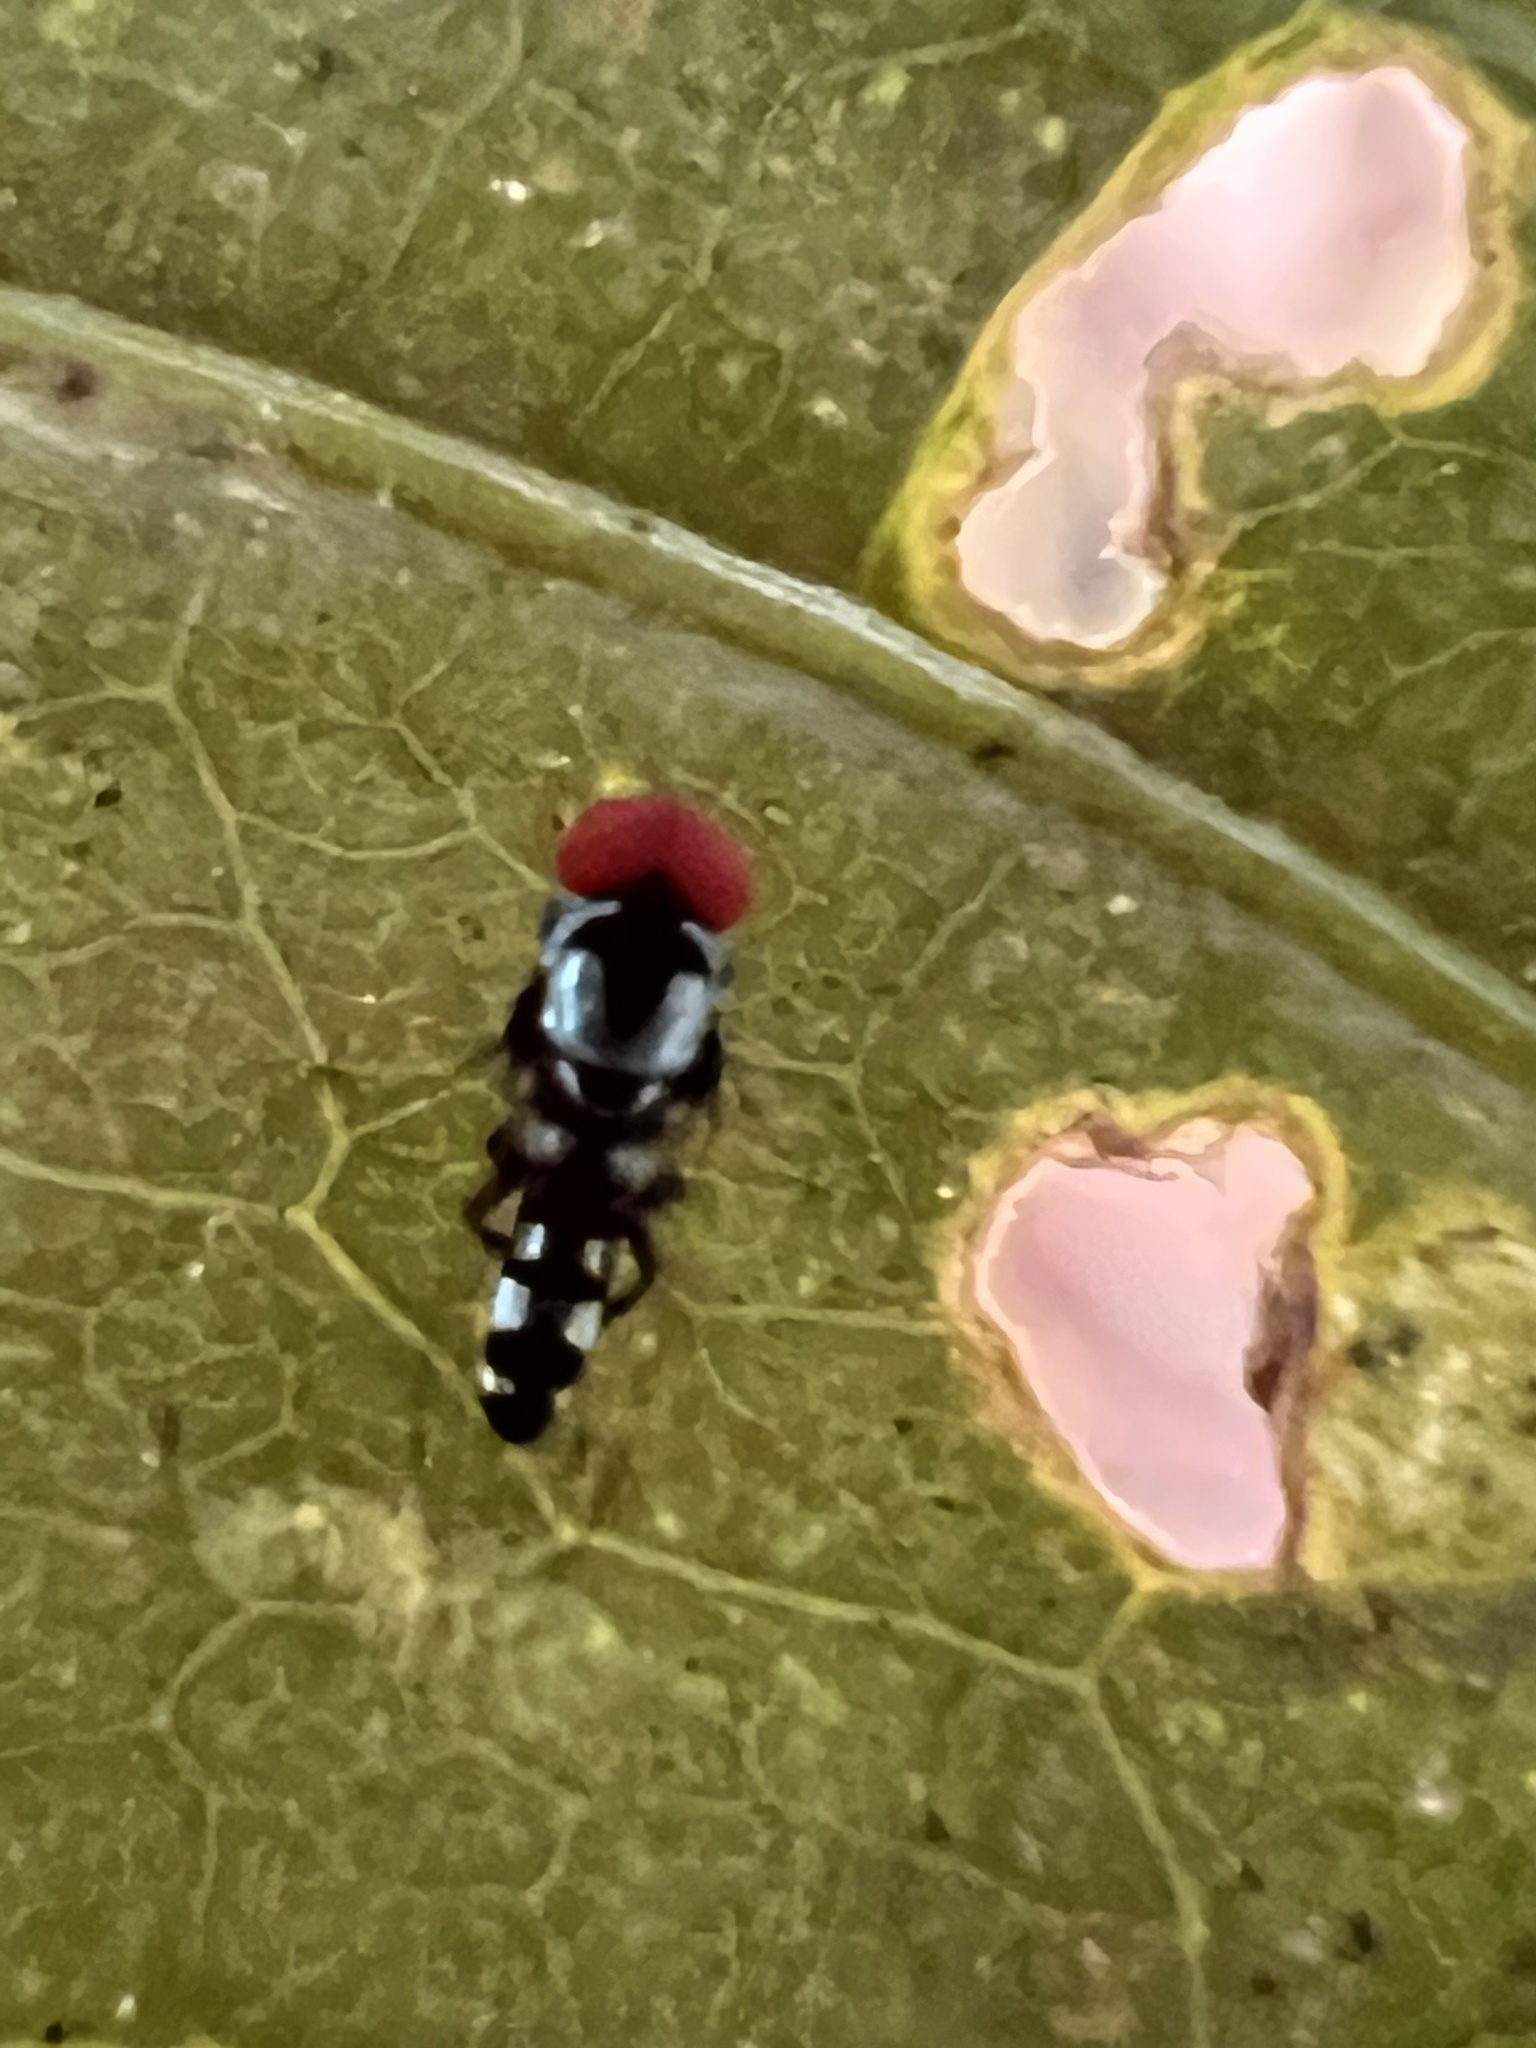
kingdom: Animalia
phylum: Arthropoda
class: Insecta
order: Diptera
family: Platypezidae
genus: Bertamyia
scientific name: Bertamyia notata
